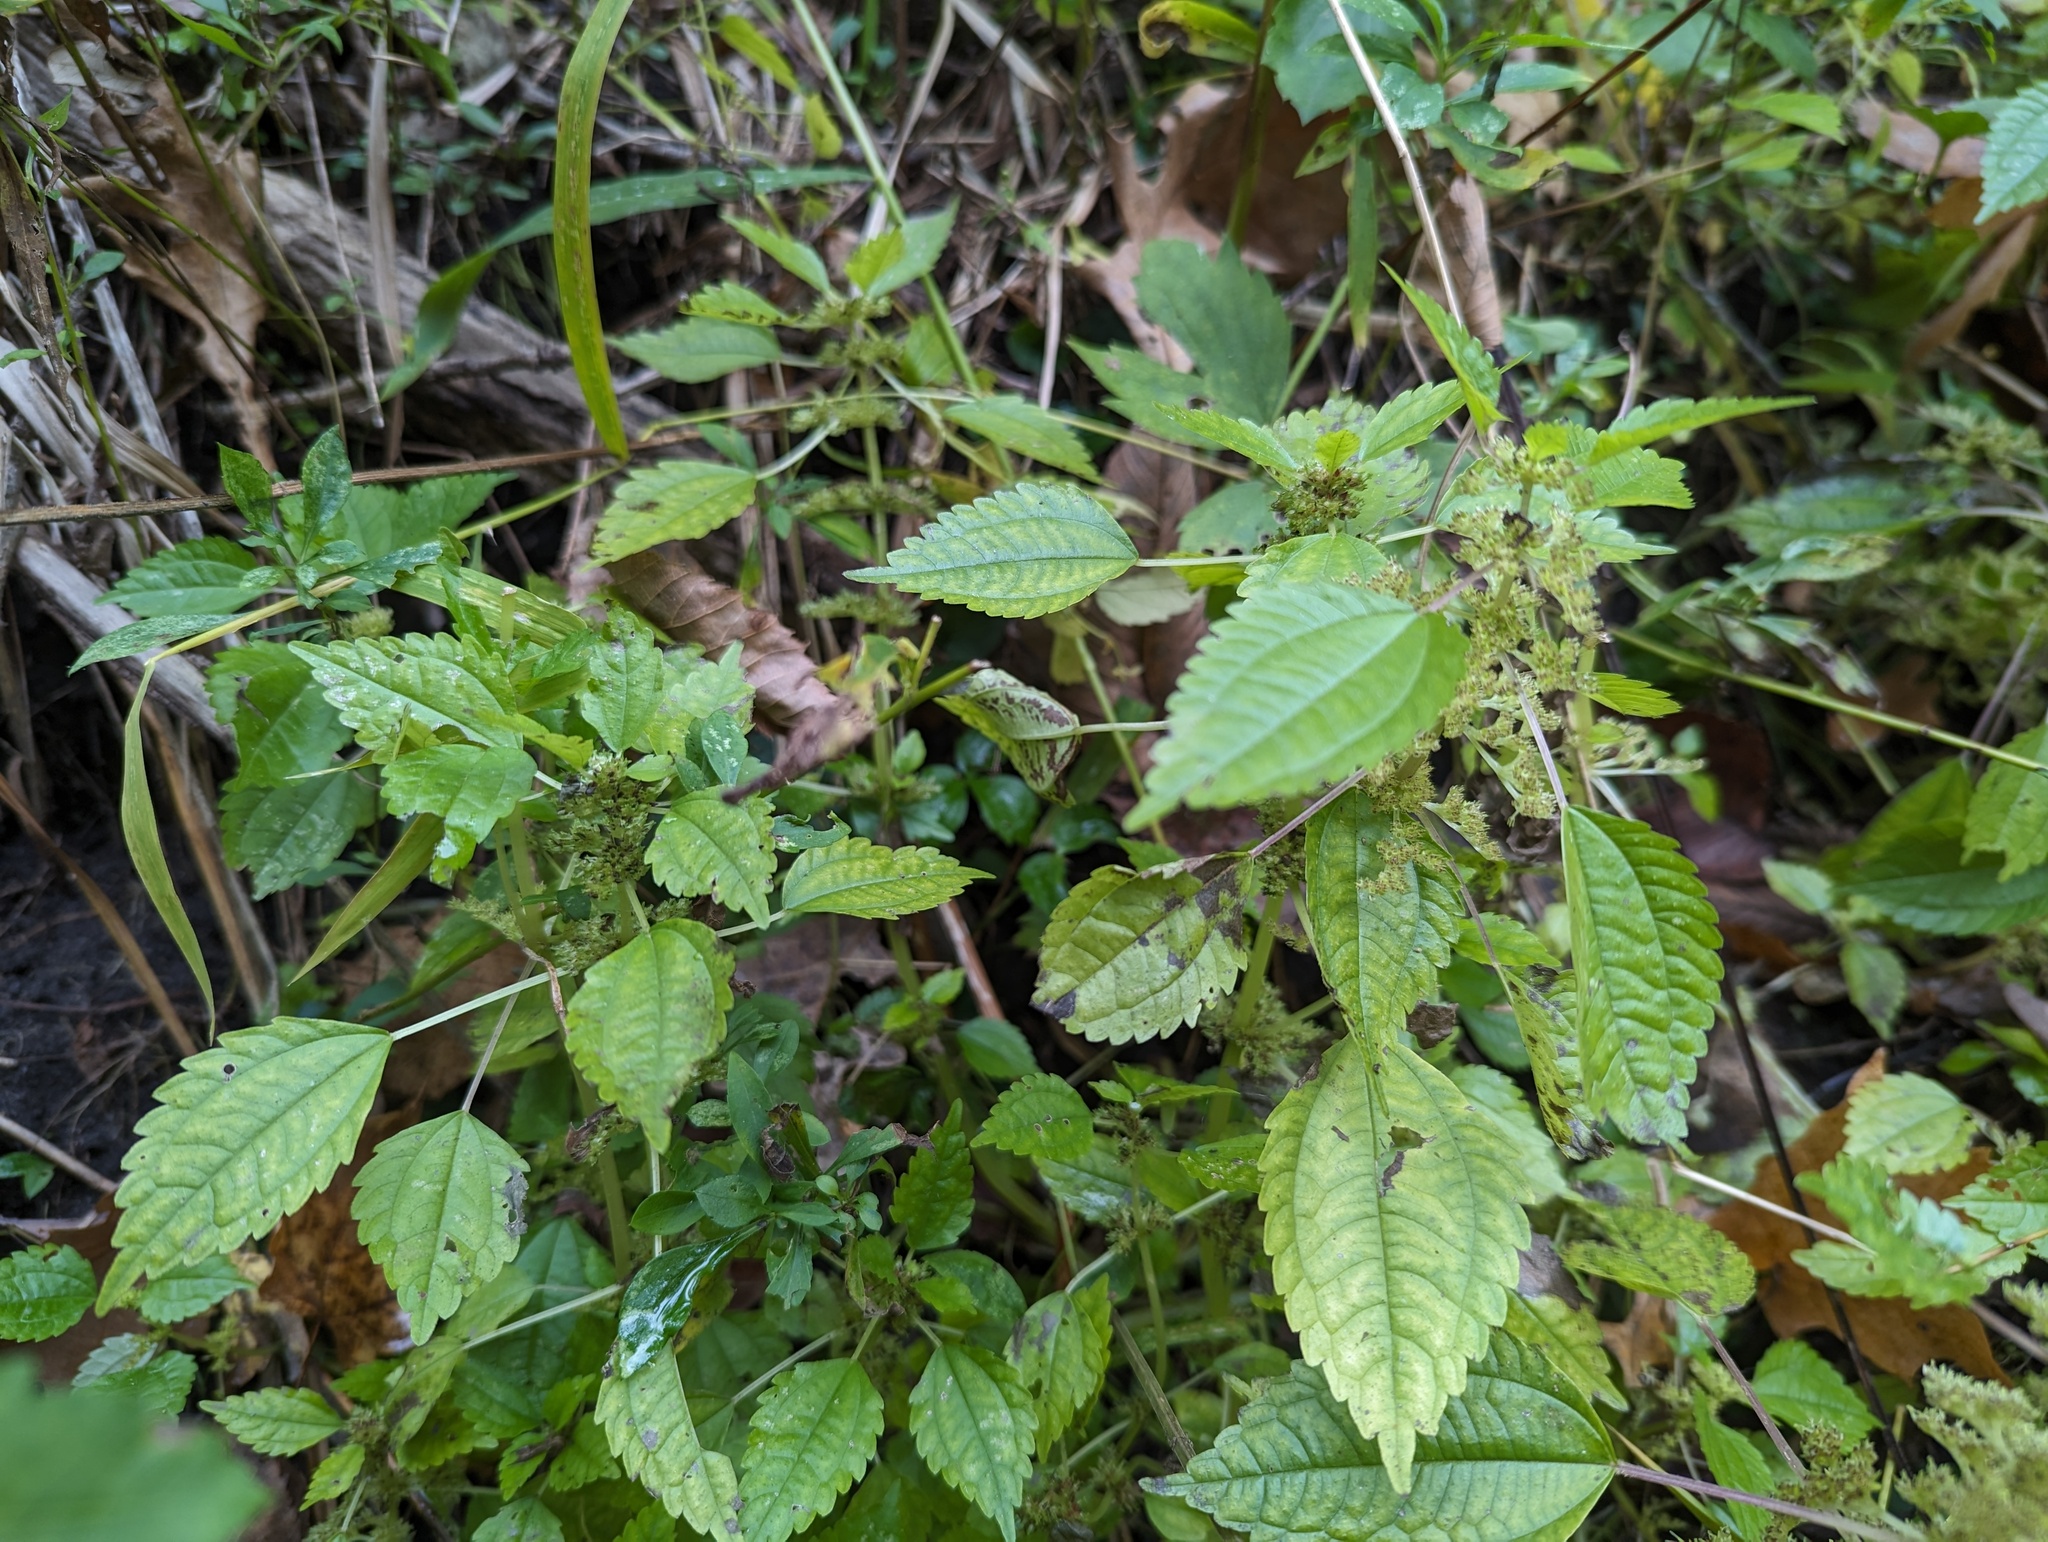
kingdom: Plantae
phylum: Tracheophyta
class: Magnoliopsida
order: Rosales
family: Urticaceae
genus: Pilea
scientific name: Pilea fontana
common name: Clearweed
